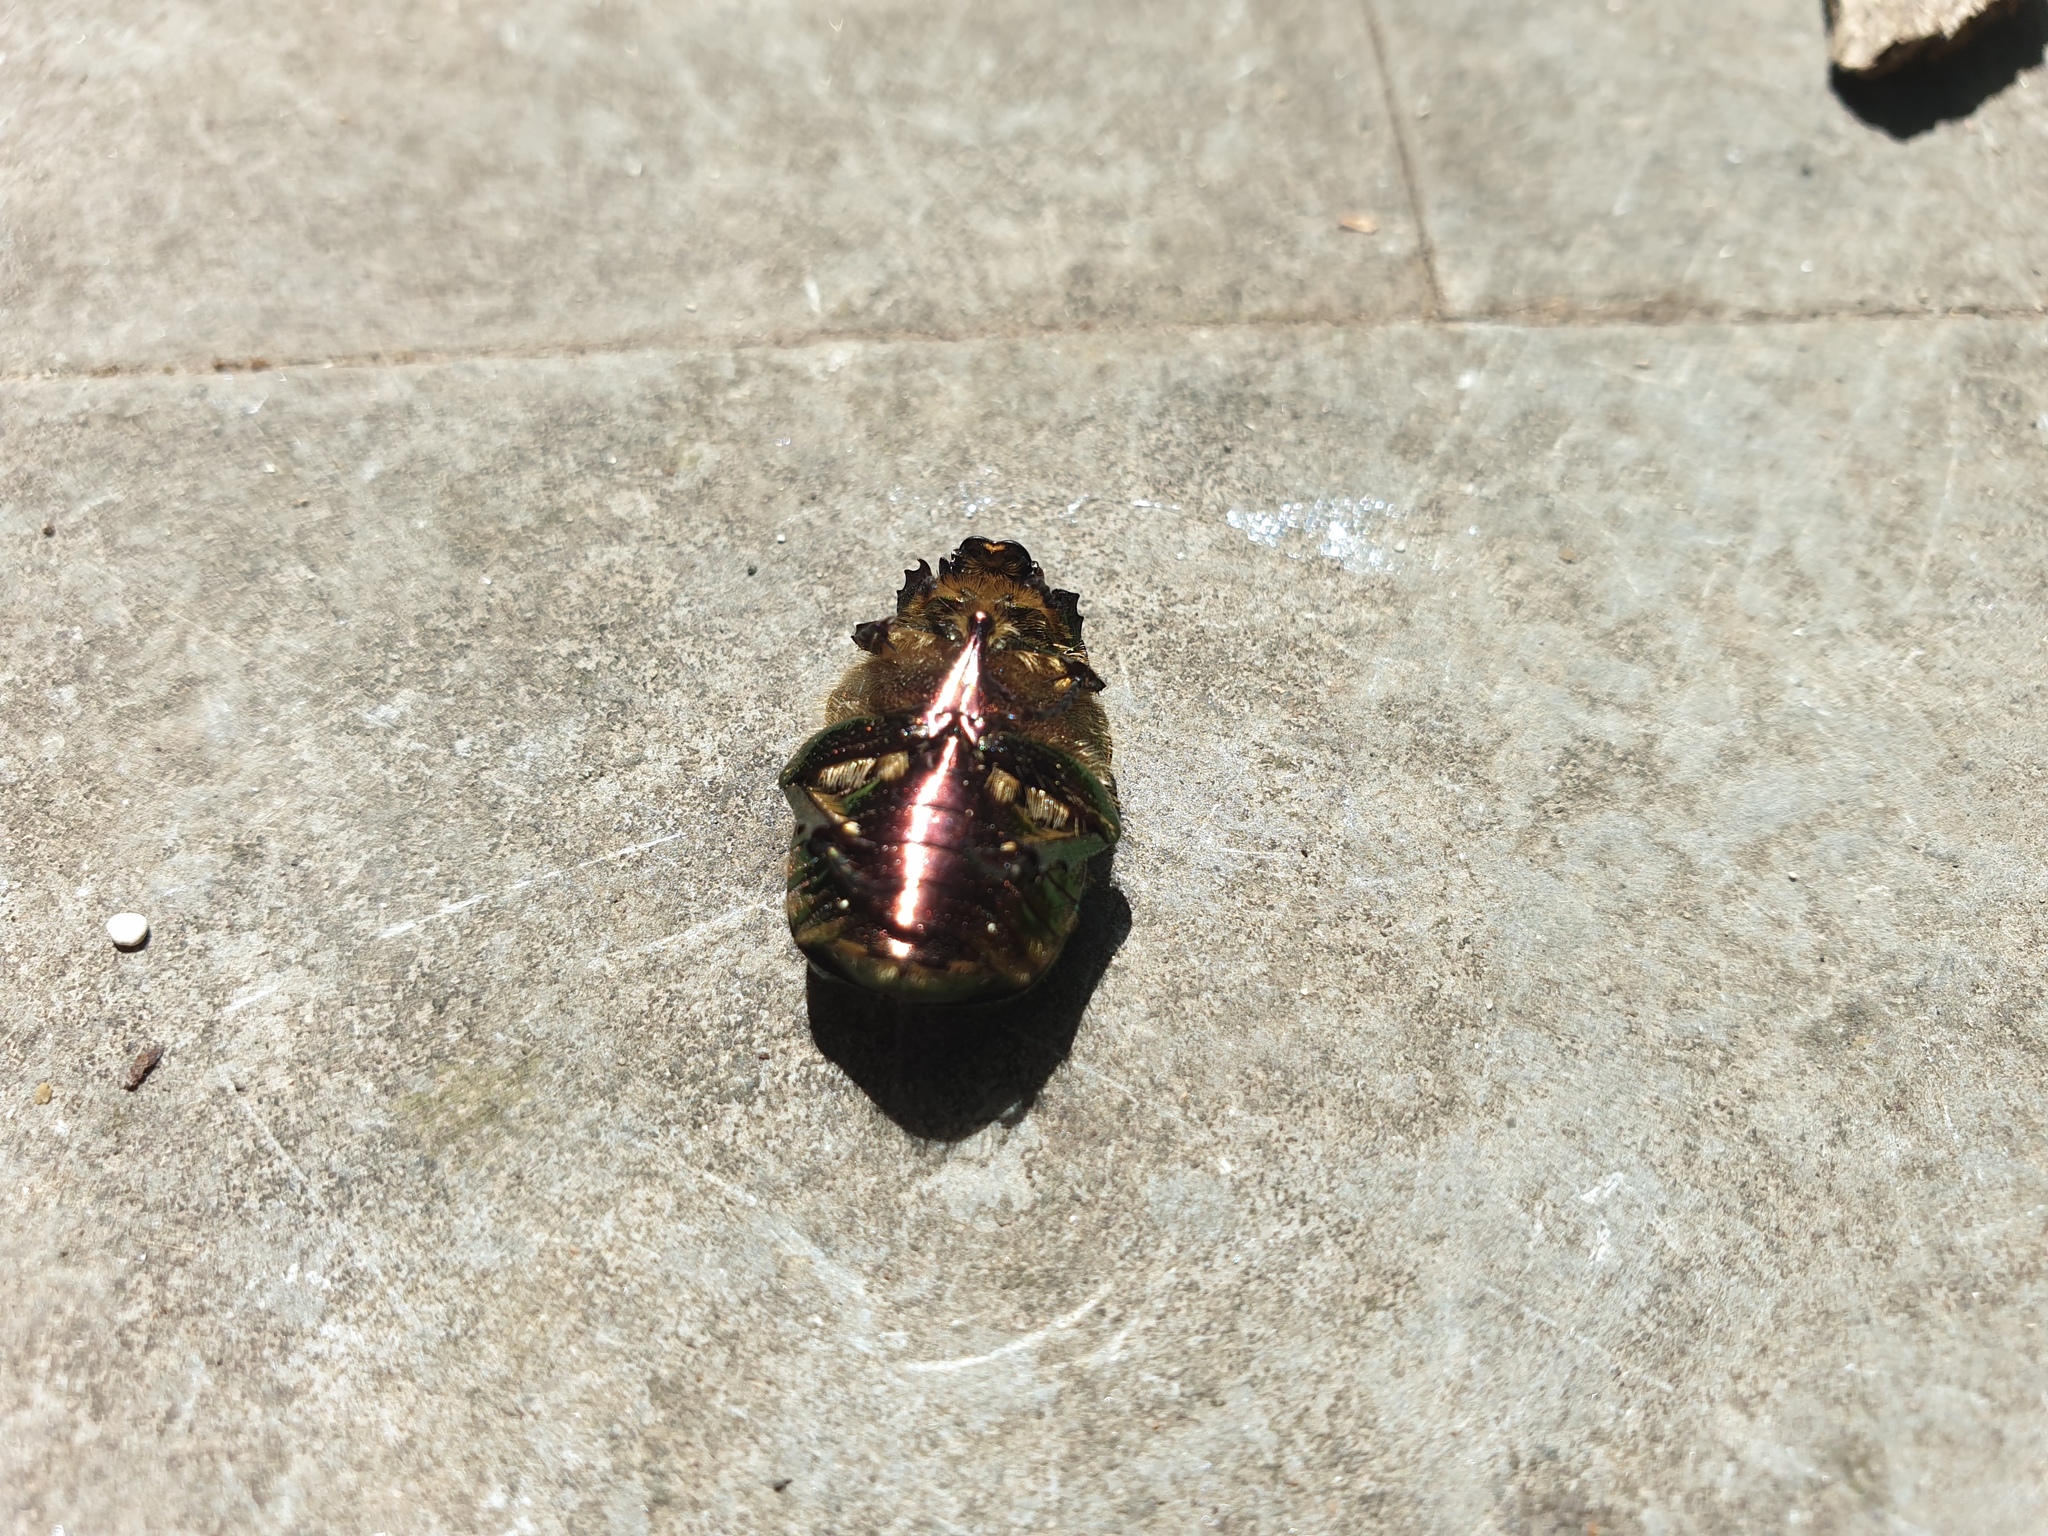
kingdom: Animalia
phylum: Arthropoda
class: Insecta
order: Coleoptera
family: Scarabaeidae
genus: Cetonia
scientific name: Cetonia aurata
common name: Rose chafer
